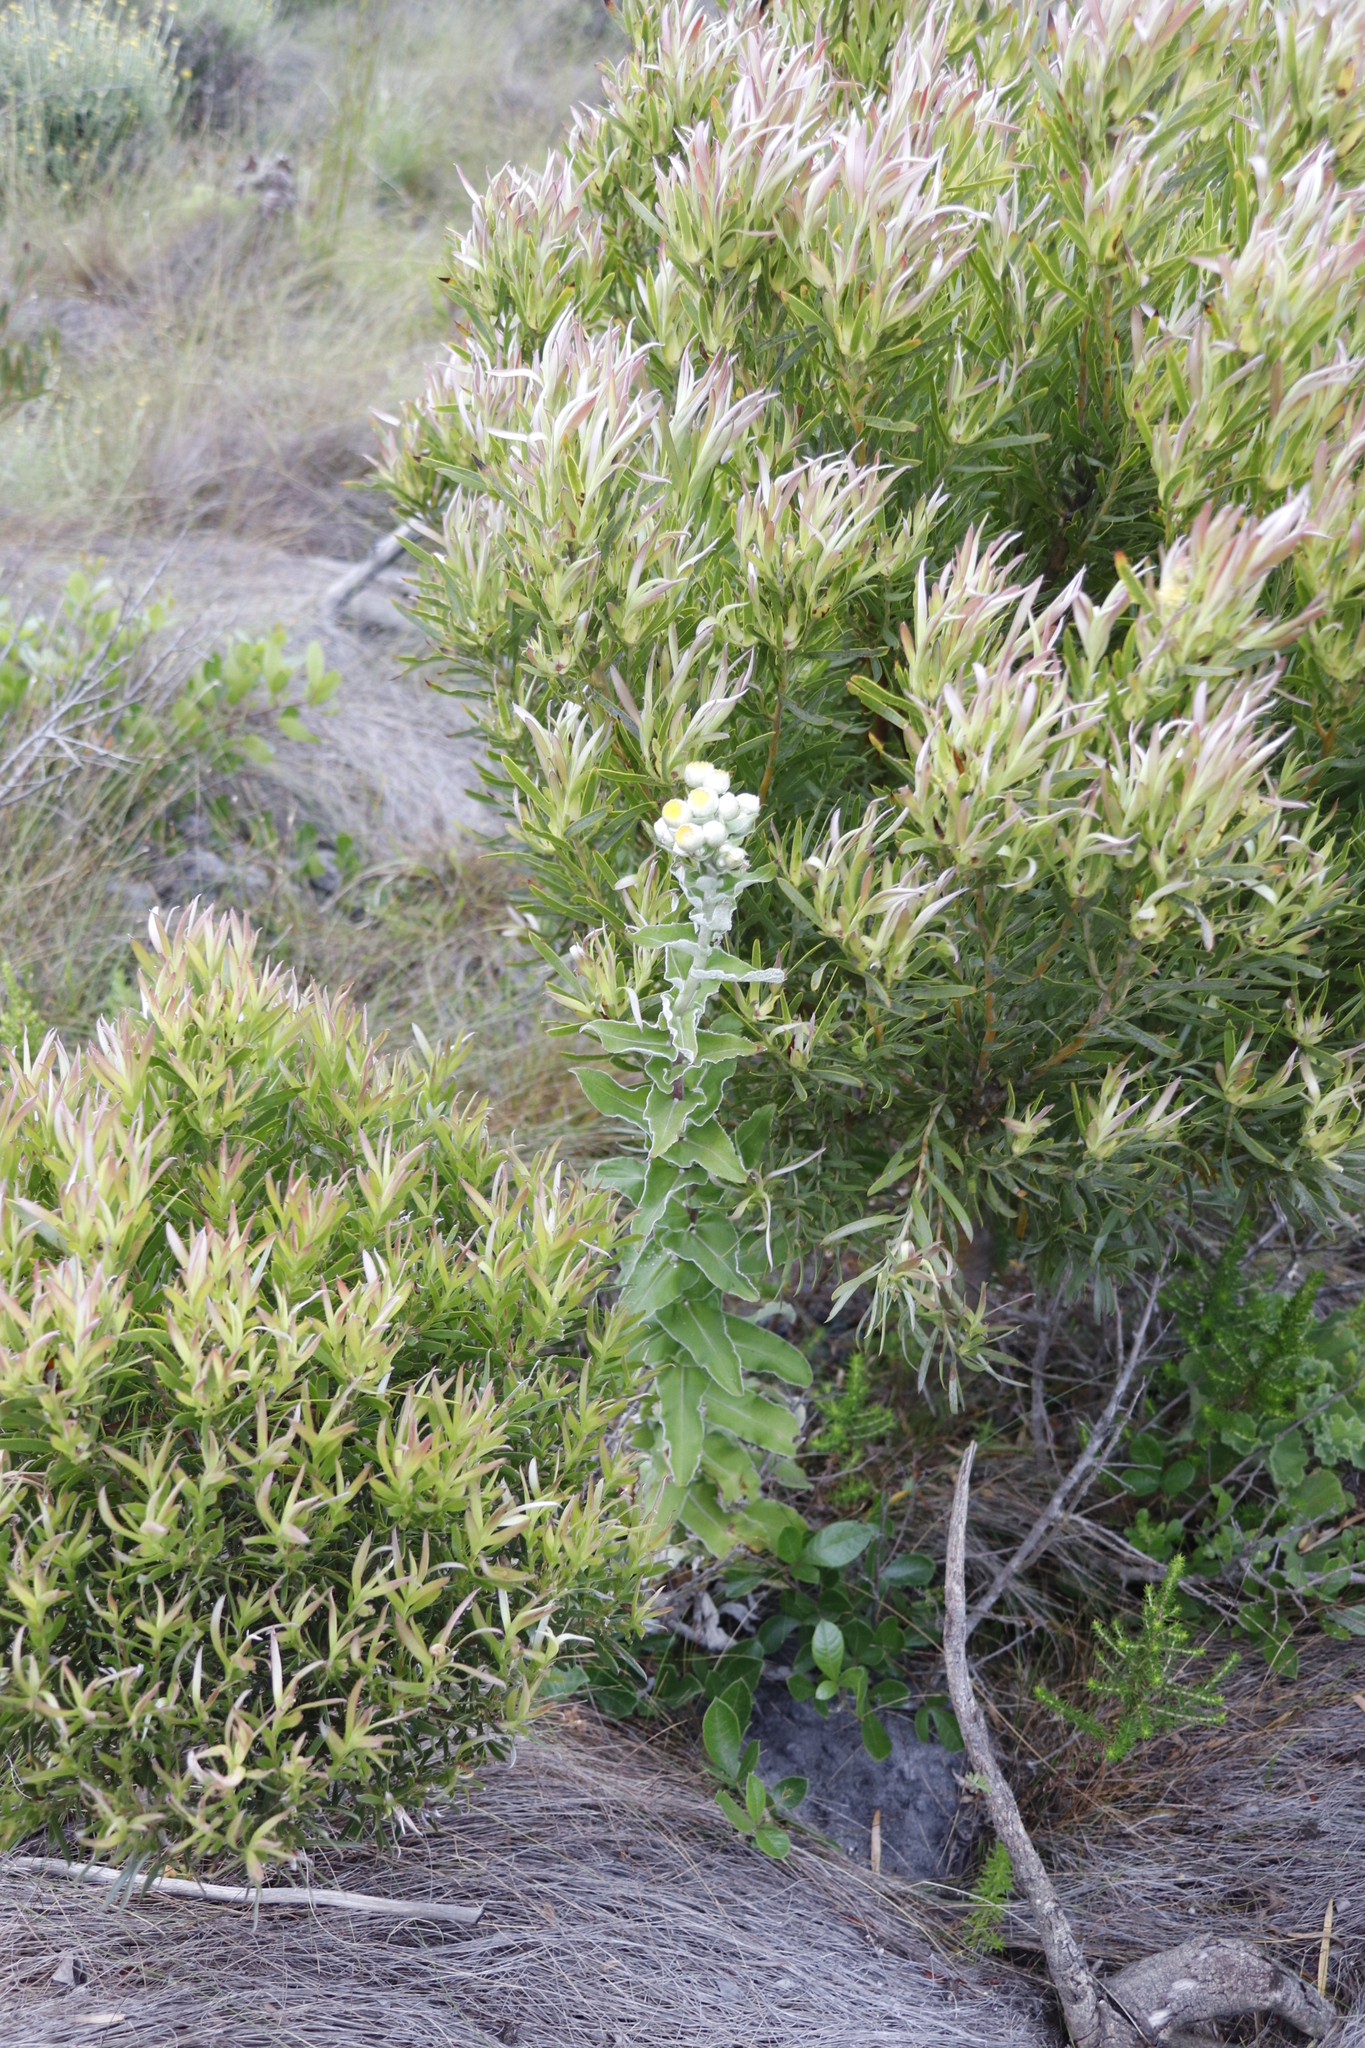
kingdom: Plantae
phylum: Tracheophyta
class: Magnoliopsida
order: Proteales
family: Proteaceae
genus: Leucadendron
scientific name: Leucadendron xanthoconus
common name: Sickle-leaf conebush
